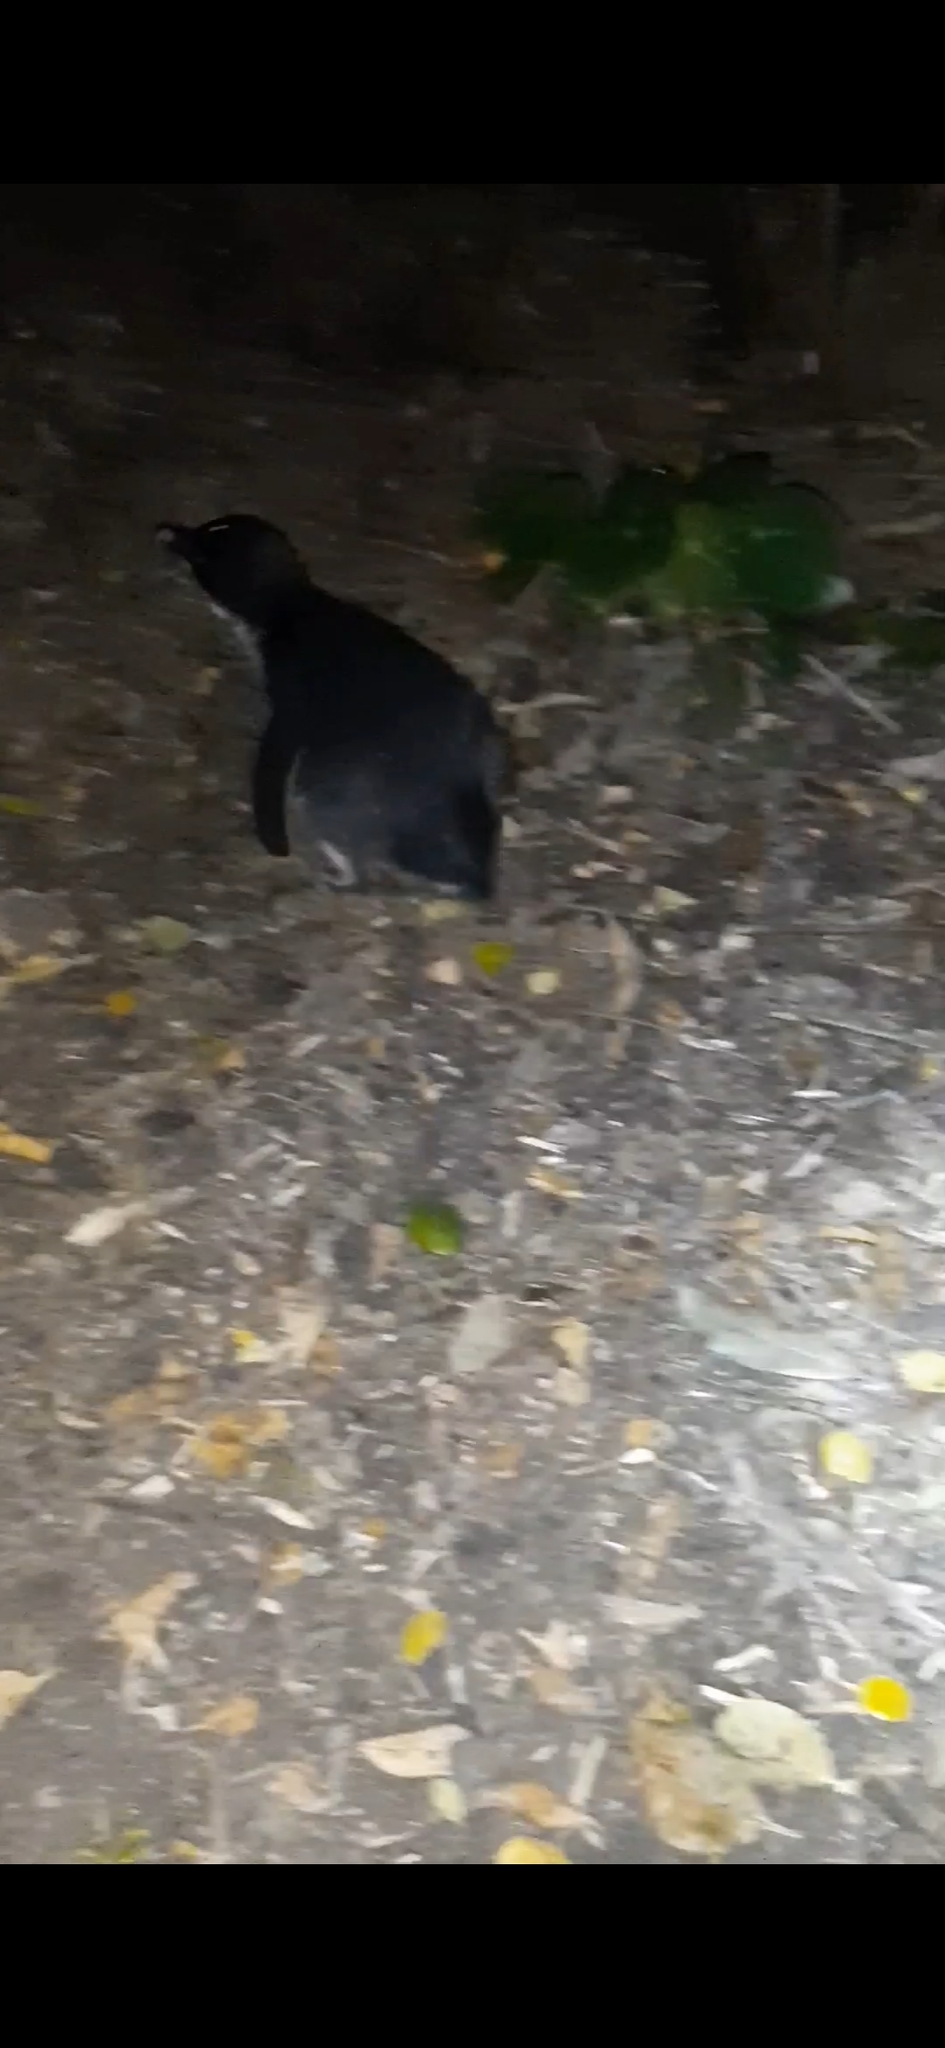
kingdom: Animalia
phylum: Chordata
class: Aves
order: Sphenisciformes
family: Spheniscidae
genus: Eudyptula
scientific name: Eudyptula minor
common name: Little penguin
